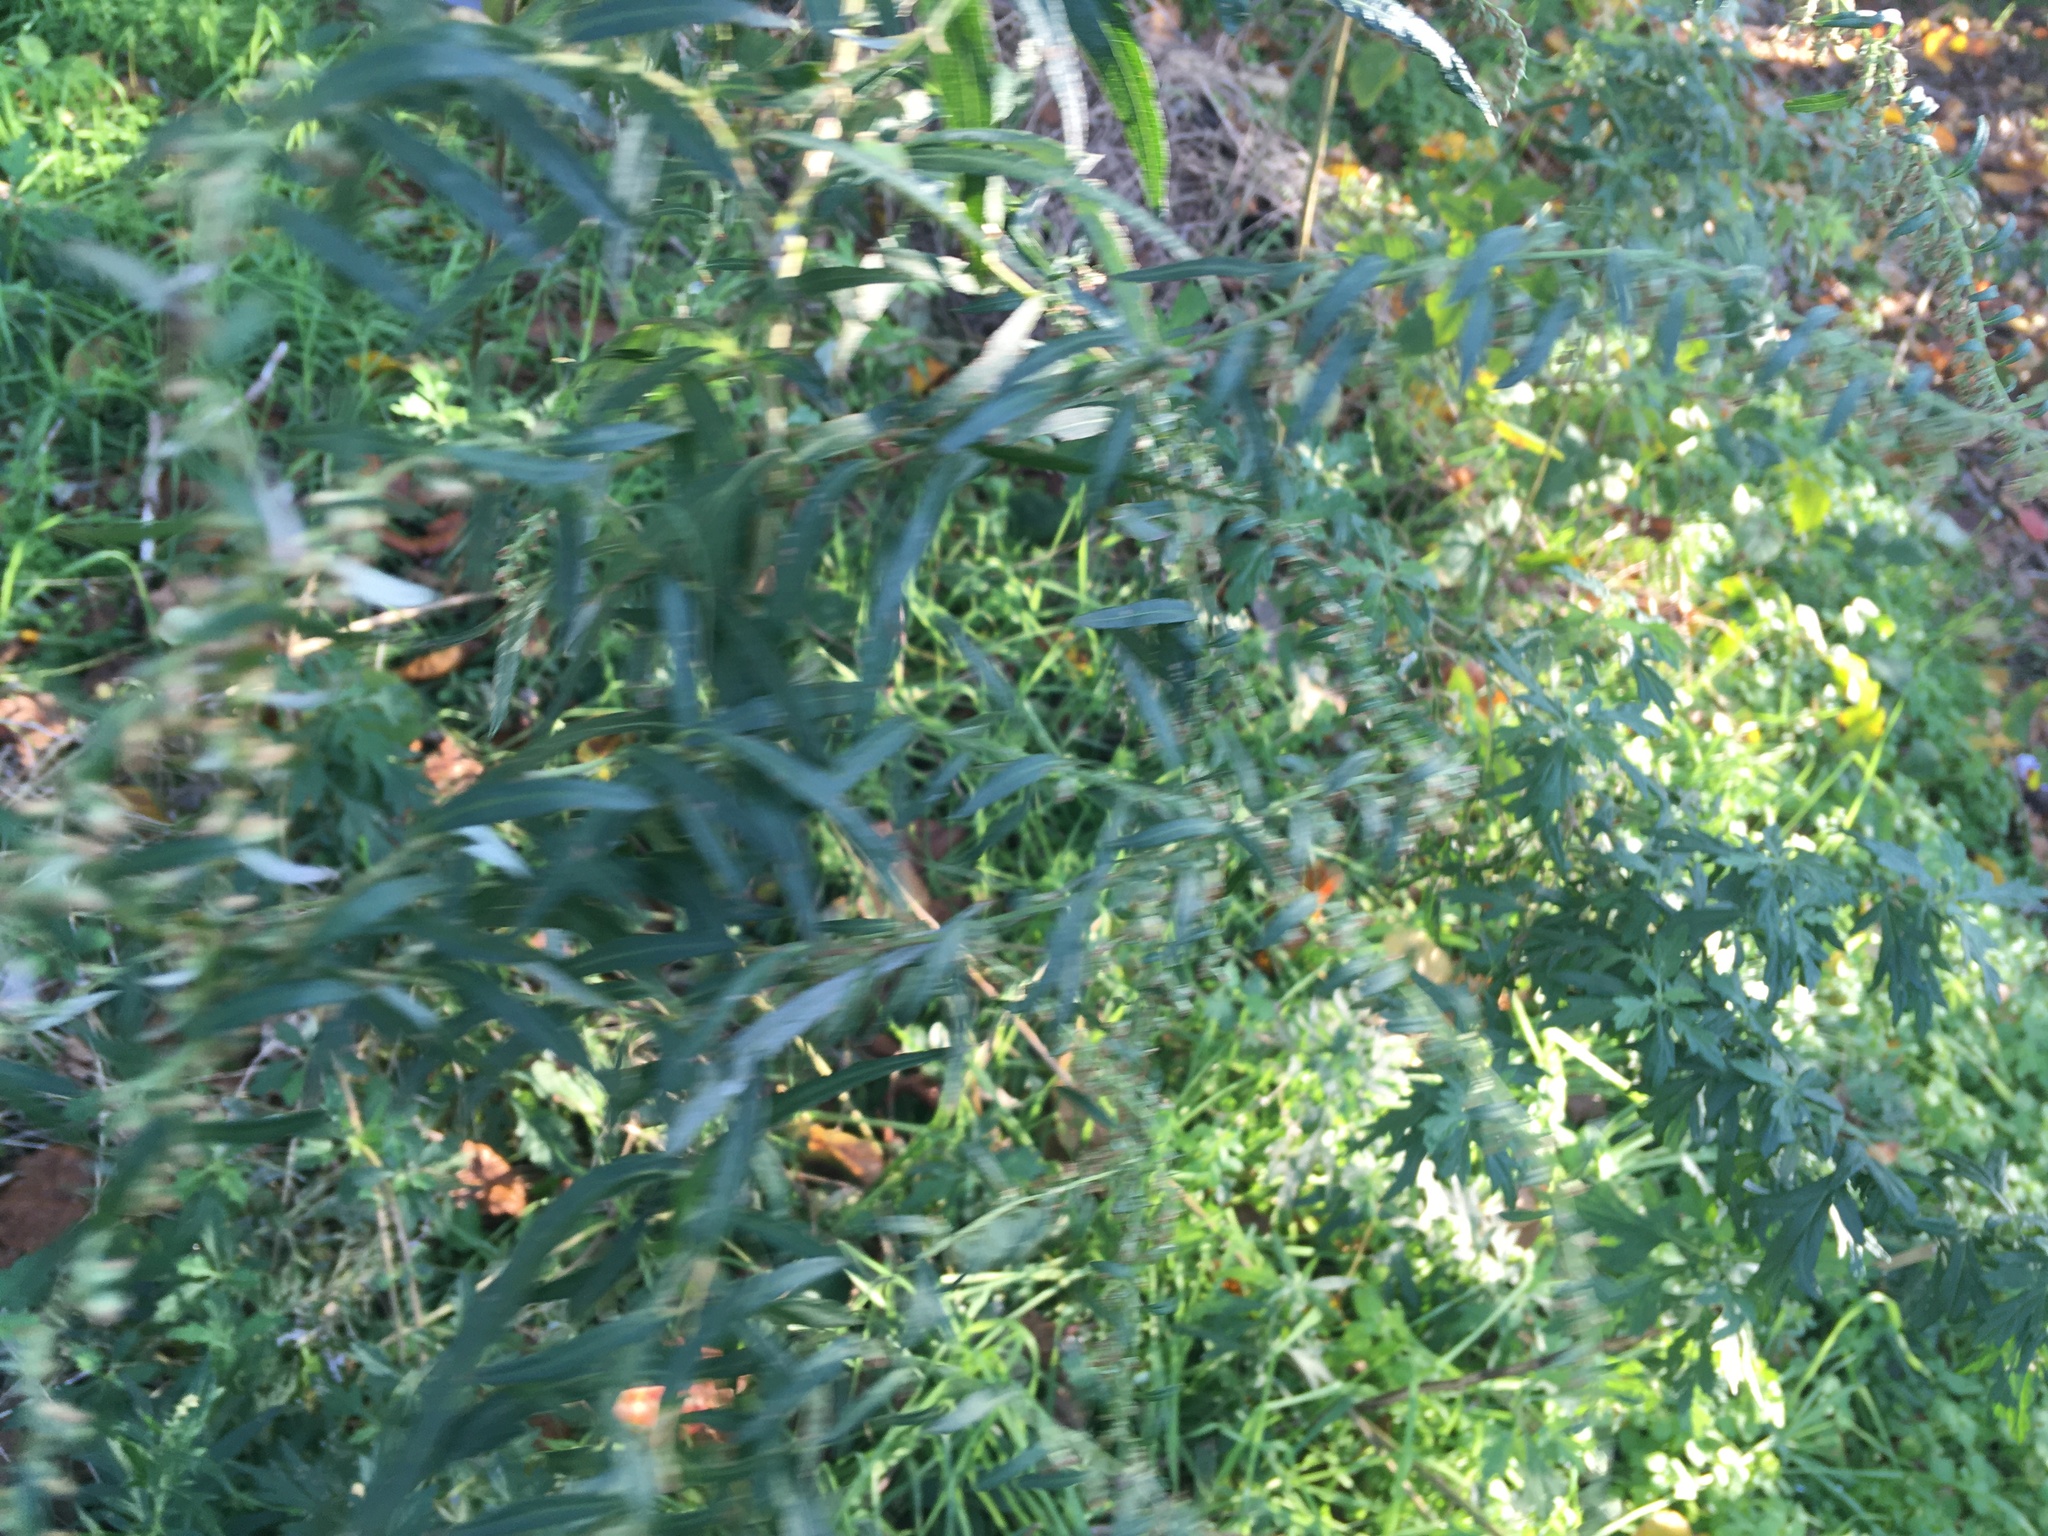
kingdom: Plantae
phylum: Tracheophyta
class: Magnoliopsida
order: Asterales
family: Asteraceae
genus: Artemisia
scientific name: Artemisia vulgaris
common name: Mugwort
